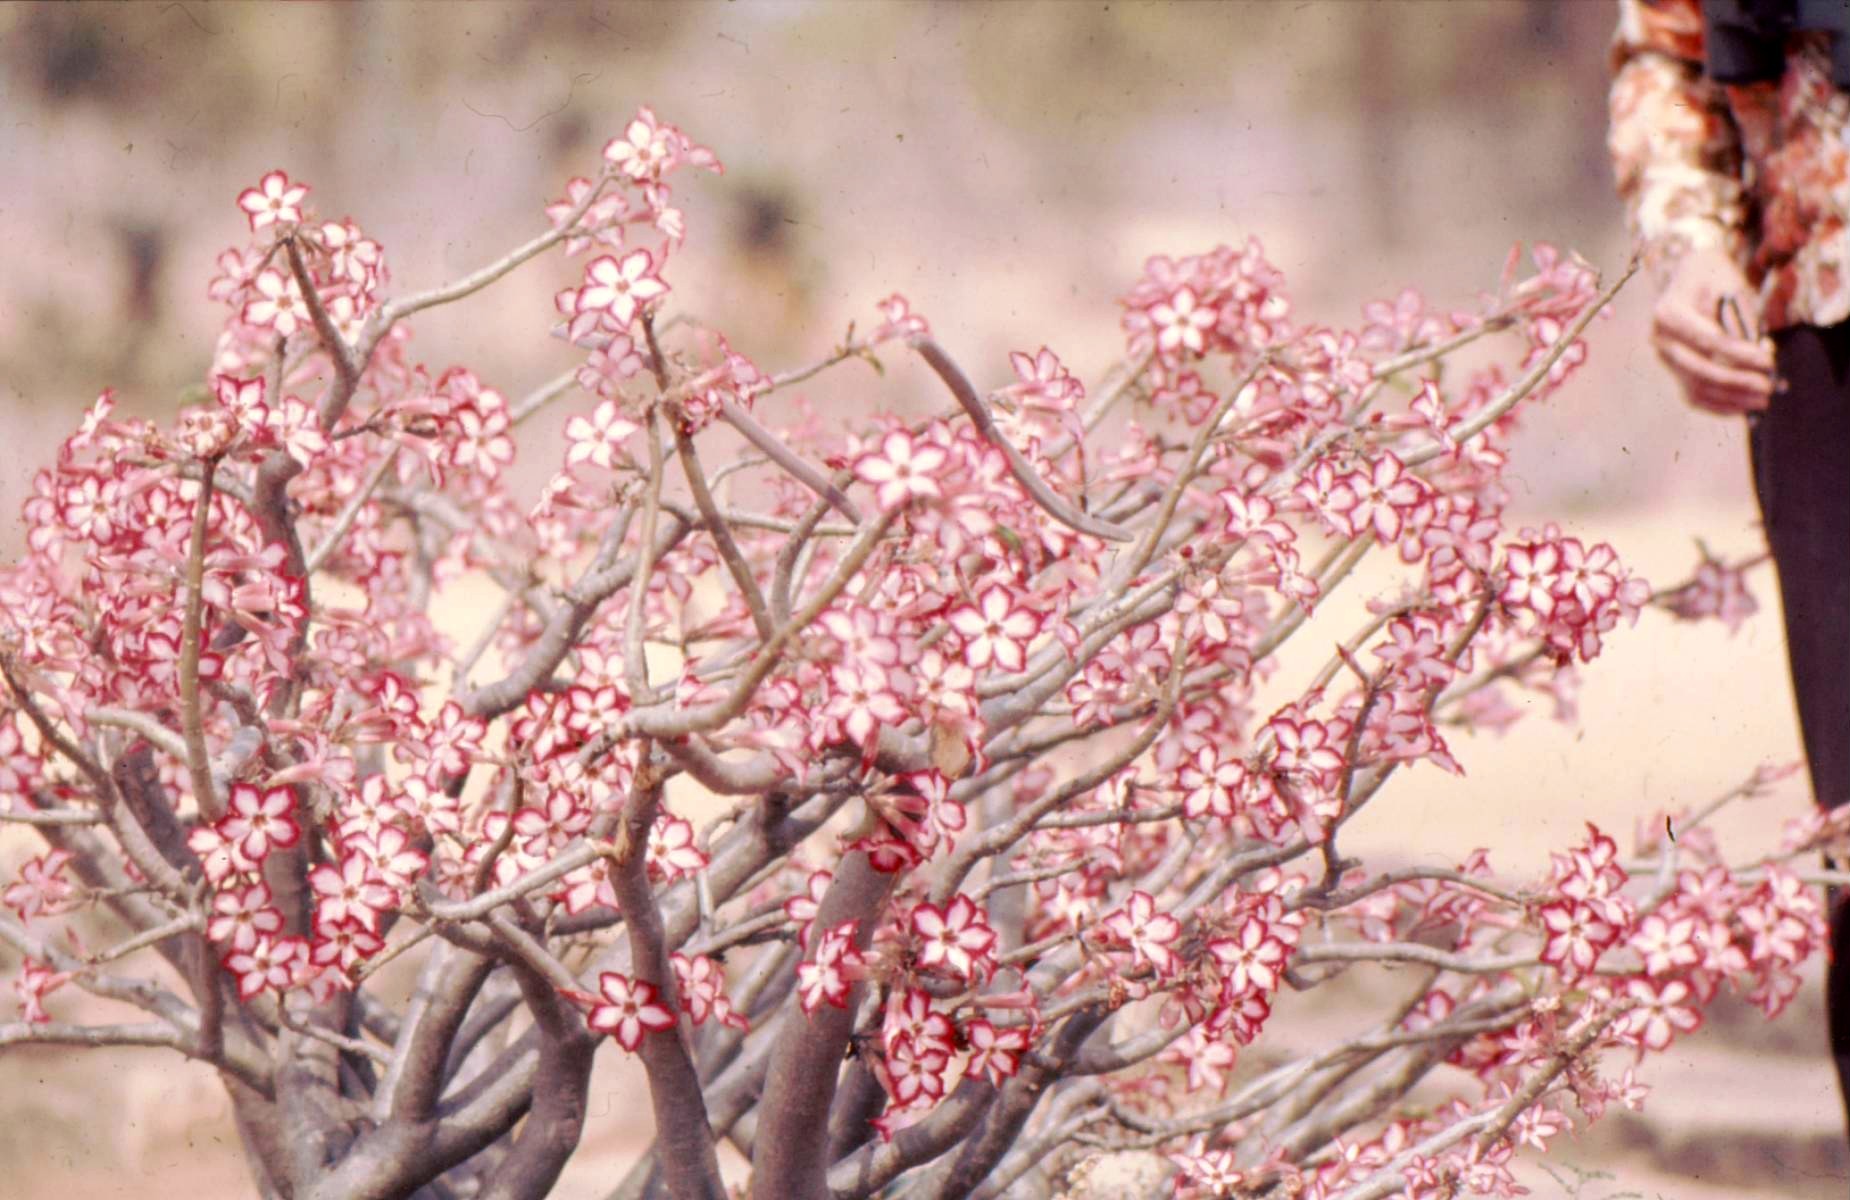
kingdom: Plantae
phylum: Tracheophyta
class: Magnoliopsida
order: Gentianales
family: Apocynaceae
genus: Adenium
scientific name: Adenium obesum
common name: Desert-rose
